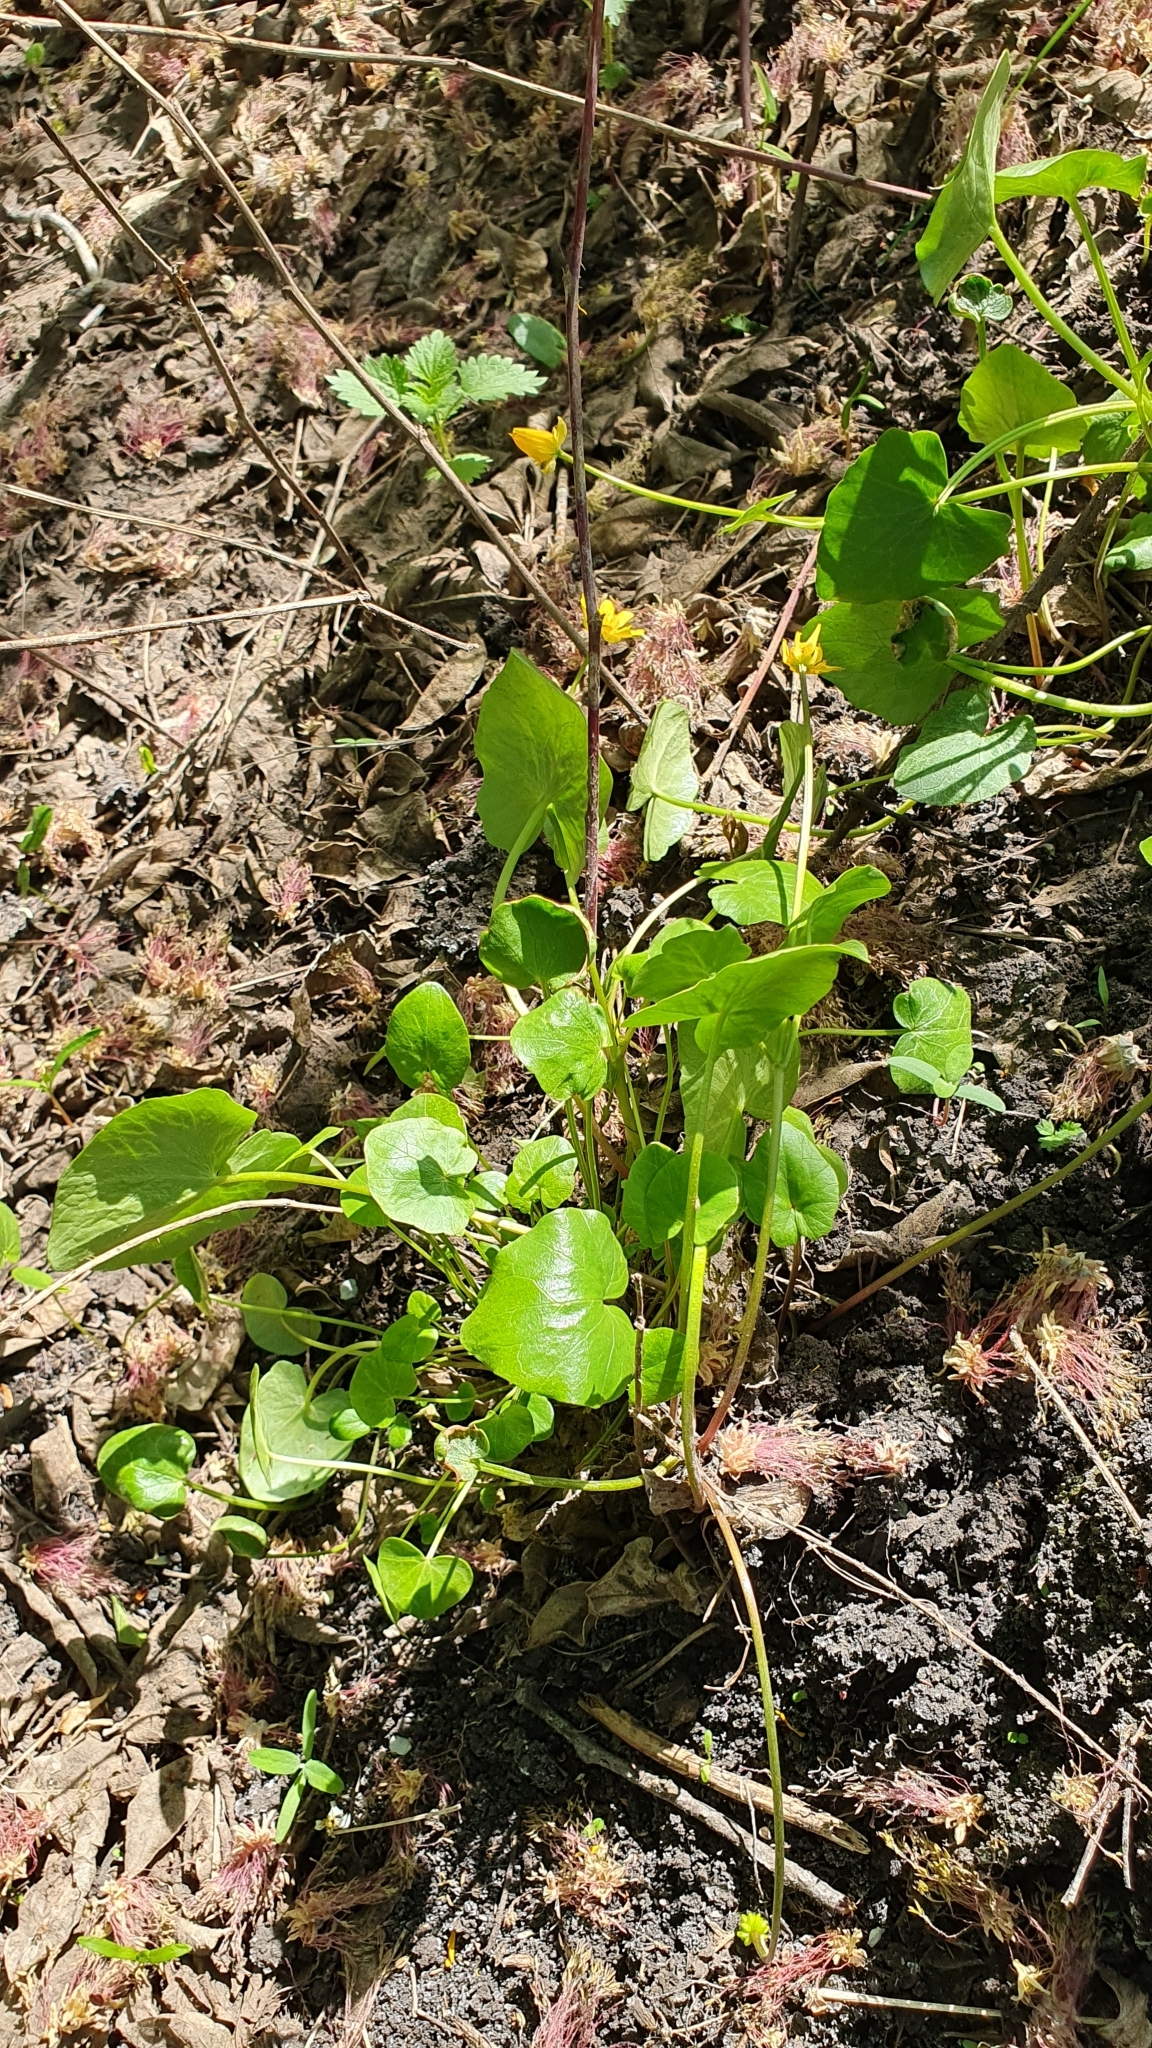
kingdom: Plantae
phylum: Tracheophyta
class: Magnoliopsida
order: Ranunculales
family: Ranunculaceae
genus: Ficaria
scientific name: Ficaria verna
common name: Lesser celandine
